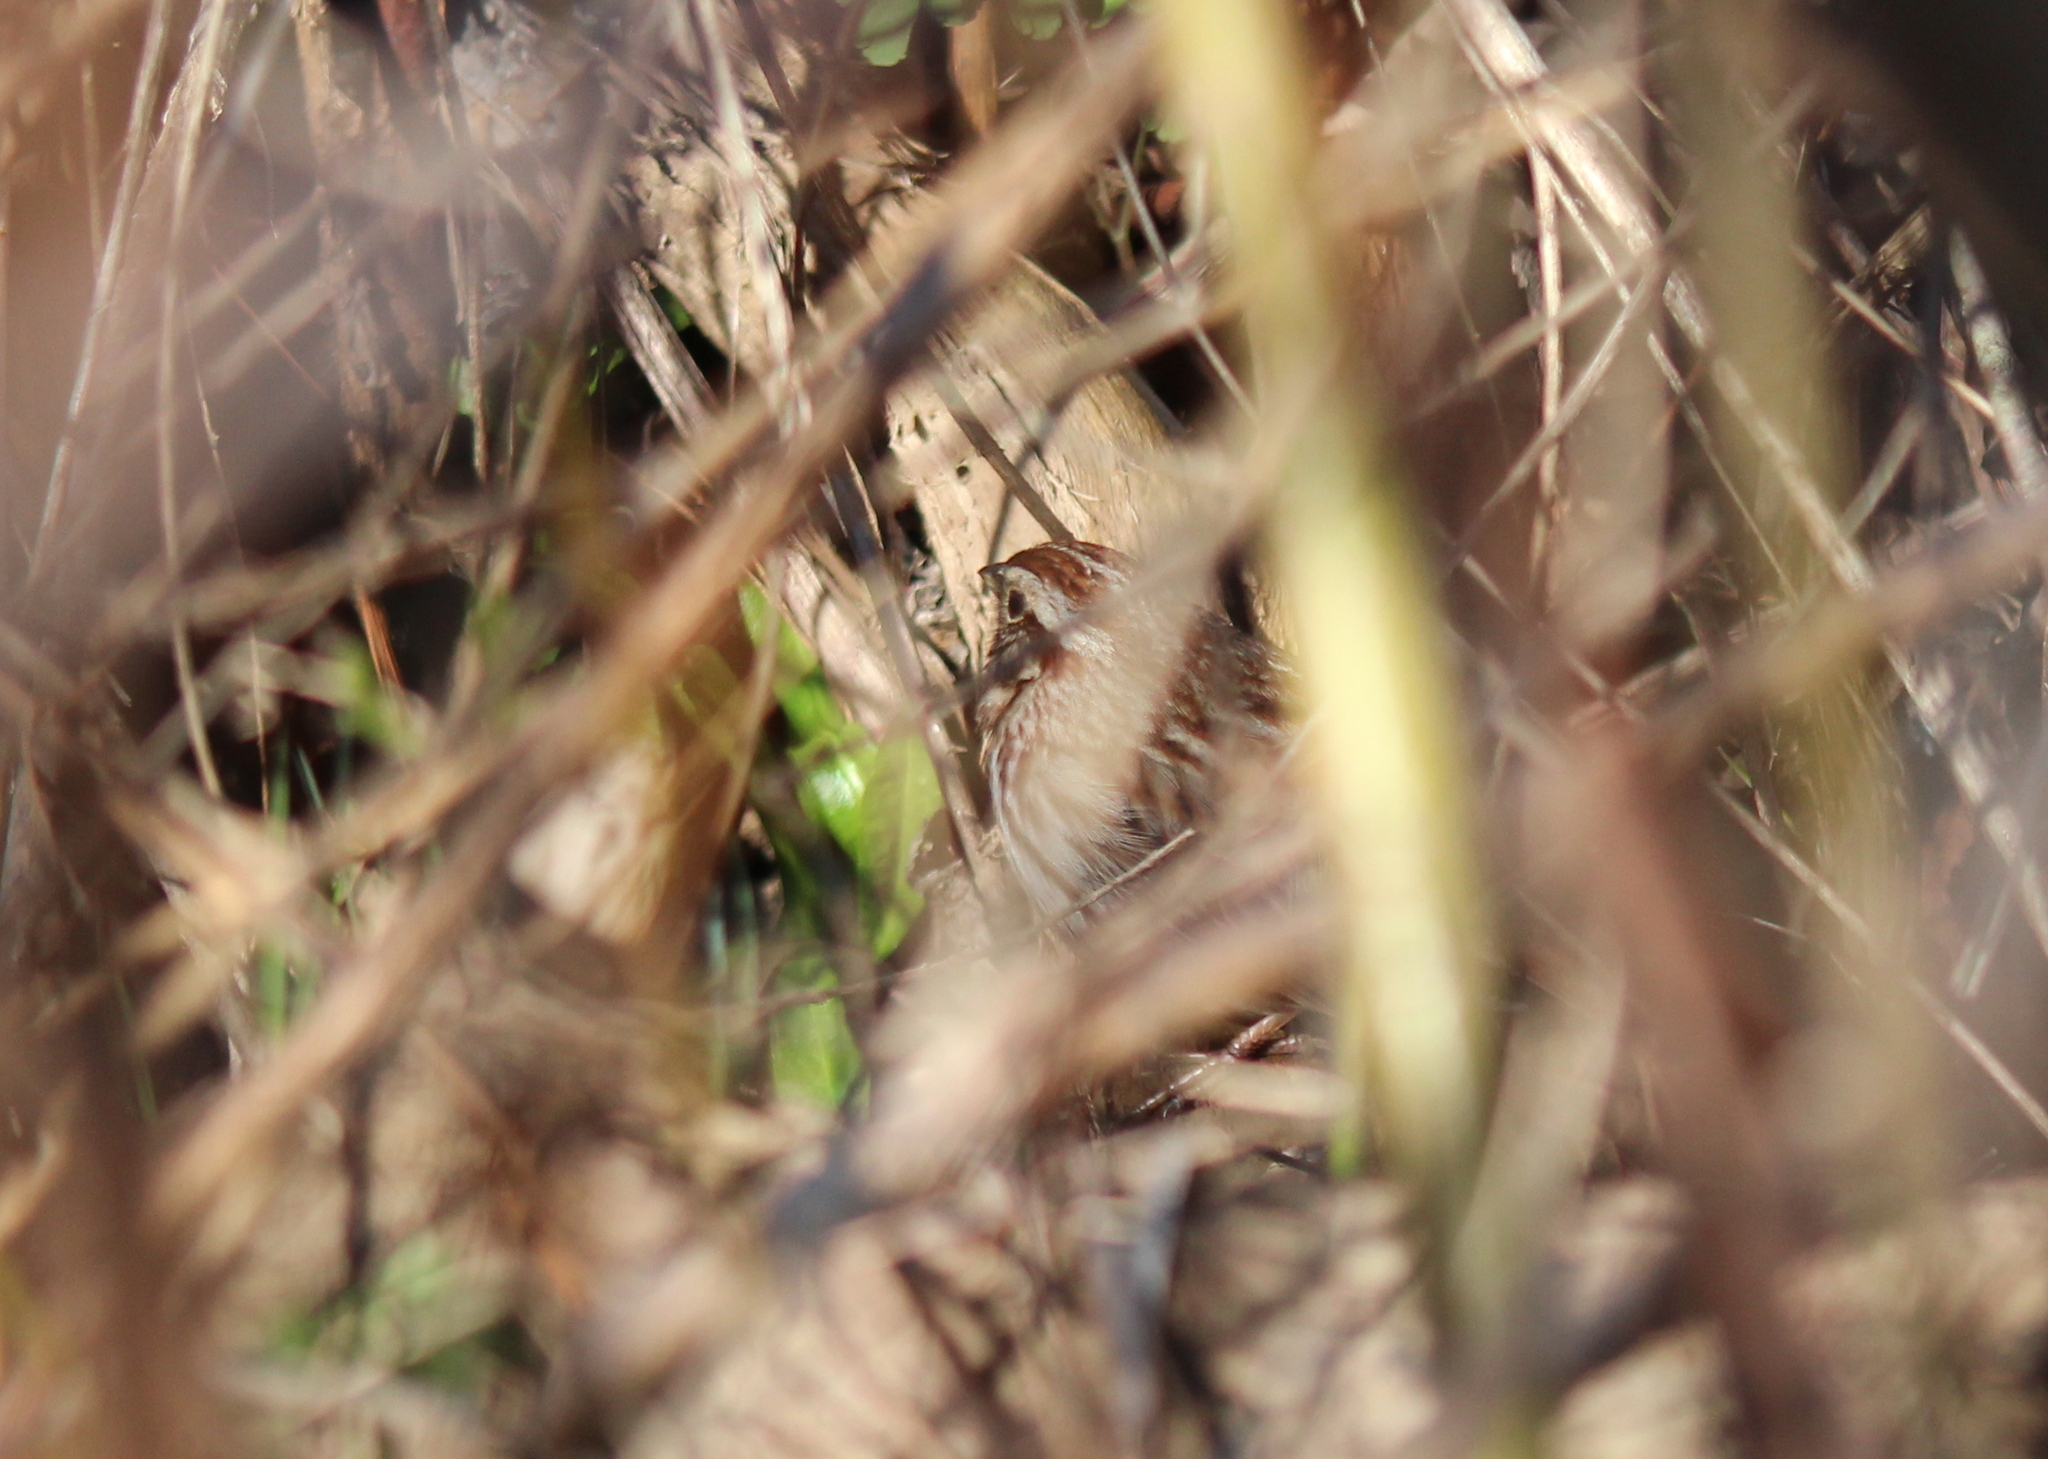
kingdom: Animalia
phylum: Chordata
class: Aves
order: Passeriformes
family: Passerellidae
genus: Melospiza
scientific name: Melospiza melodia
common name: Song sparrow
